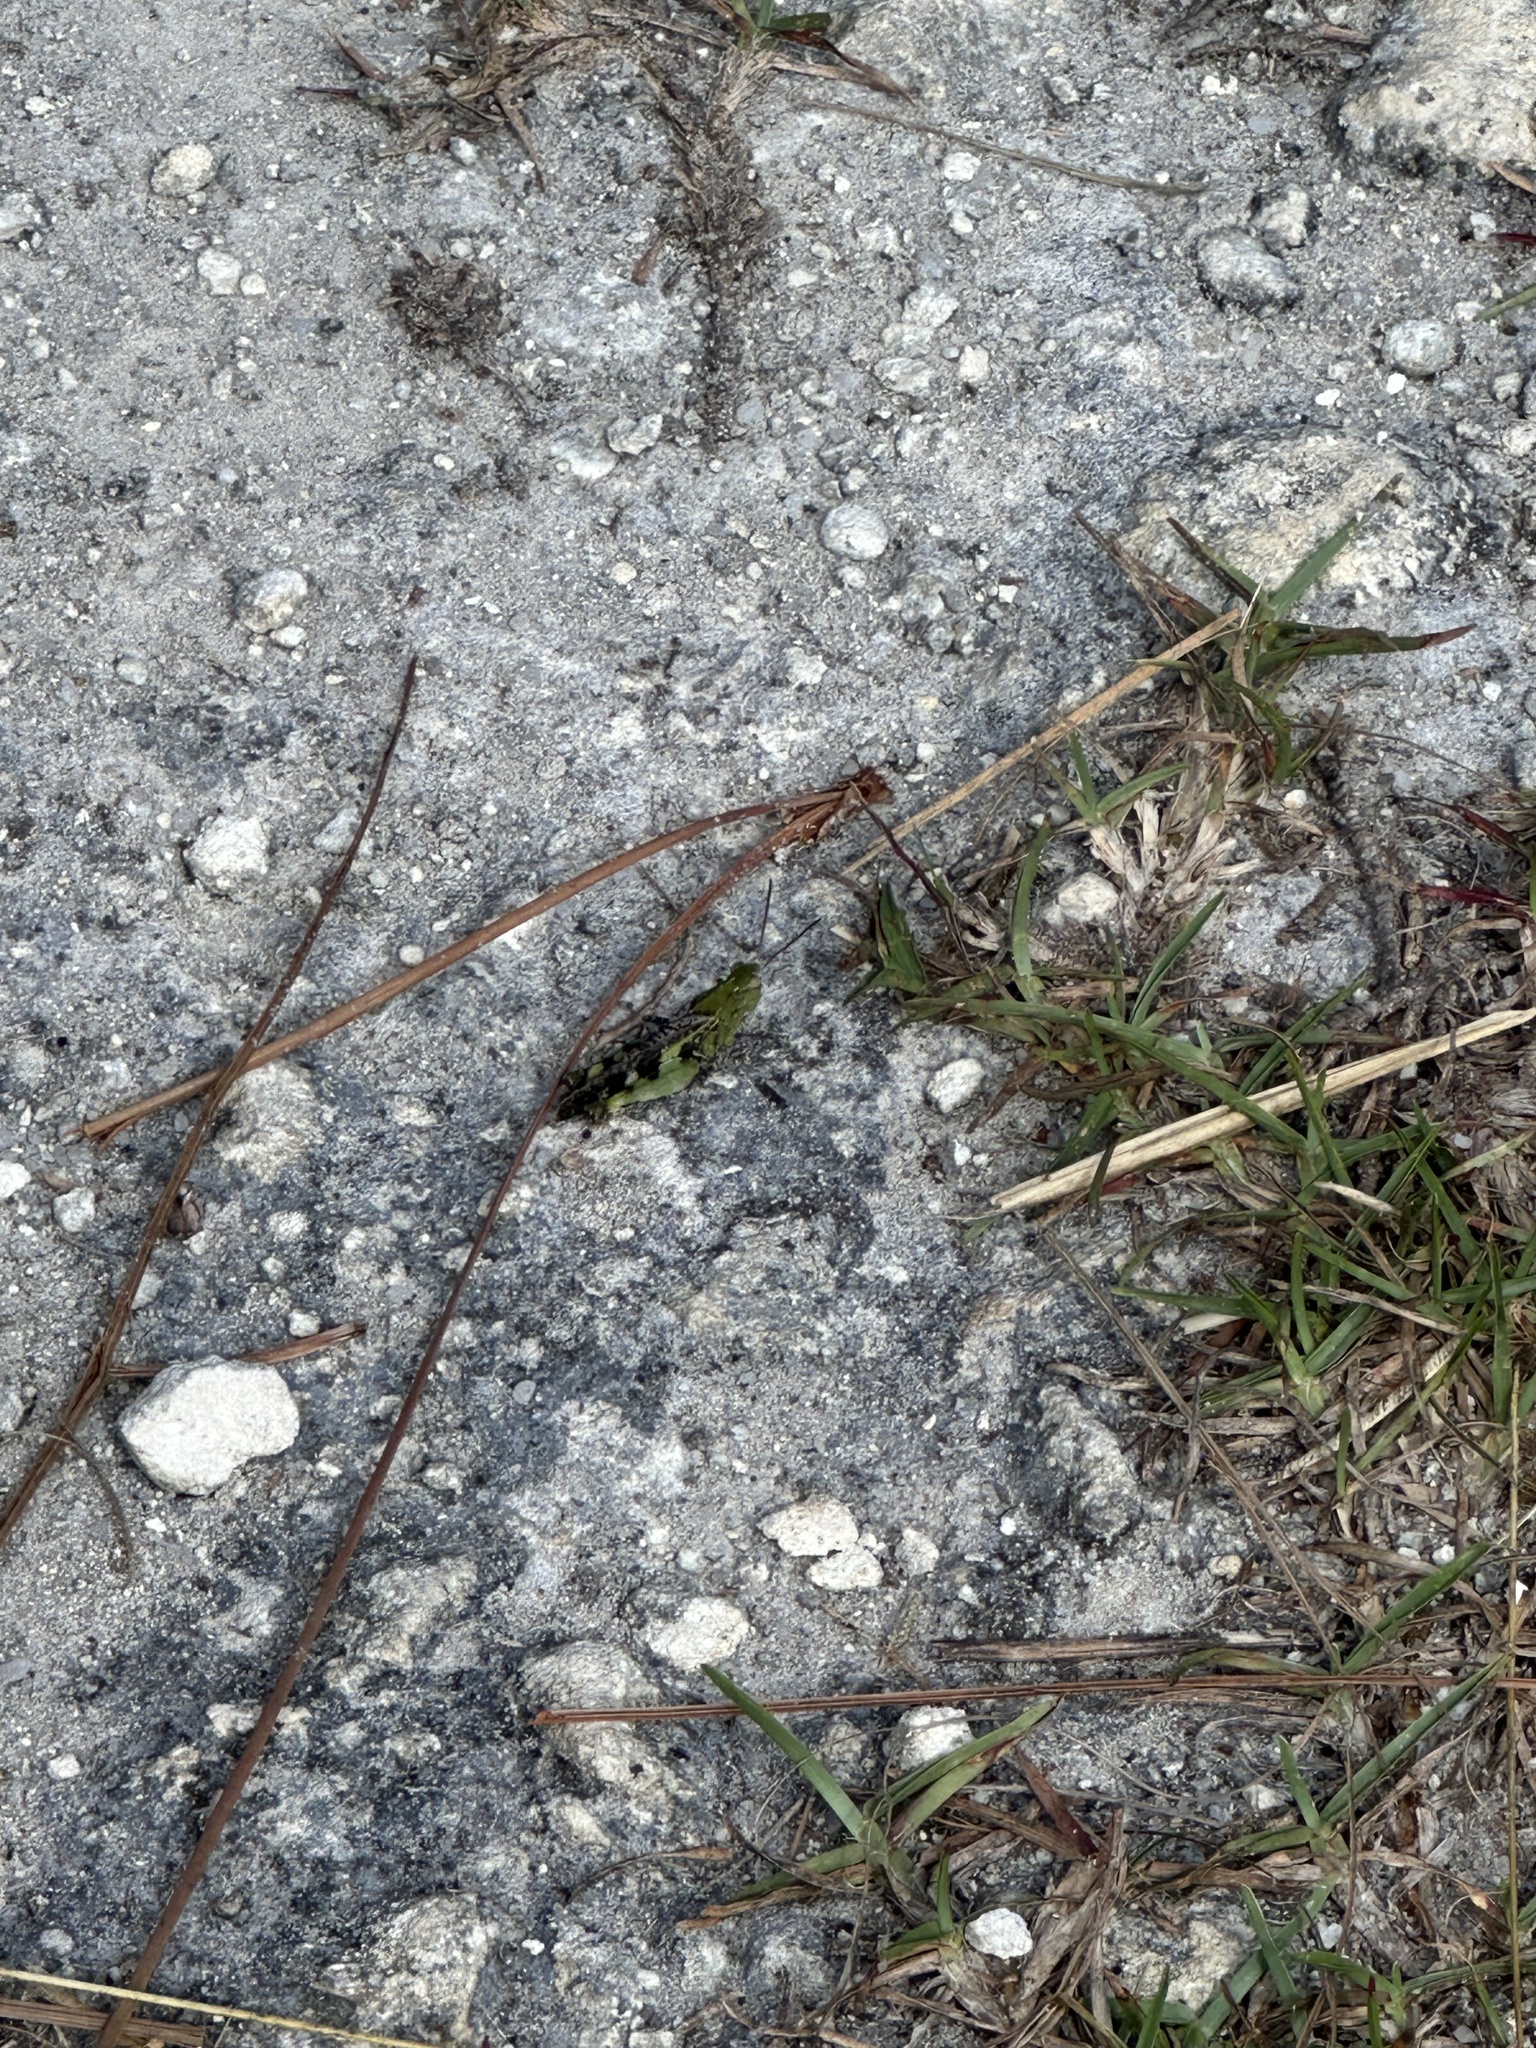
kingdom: Animalia
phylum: Arthropoda
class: Insecta
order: Orthoptera
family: Acrididae
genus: Chortophaga
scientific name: Chortophaga australior
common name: Southern green-striped grasshopper
